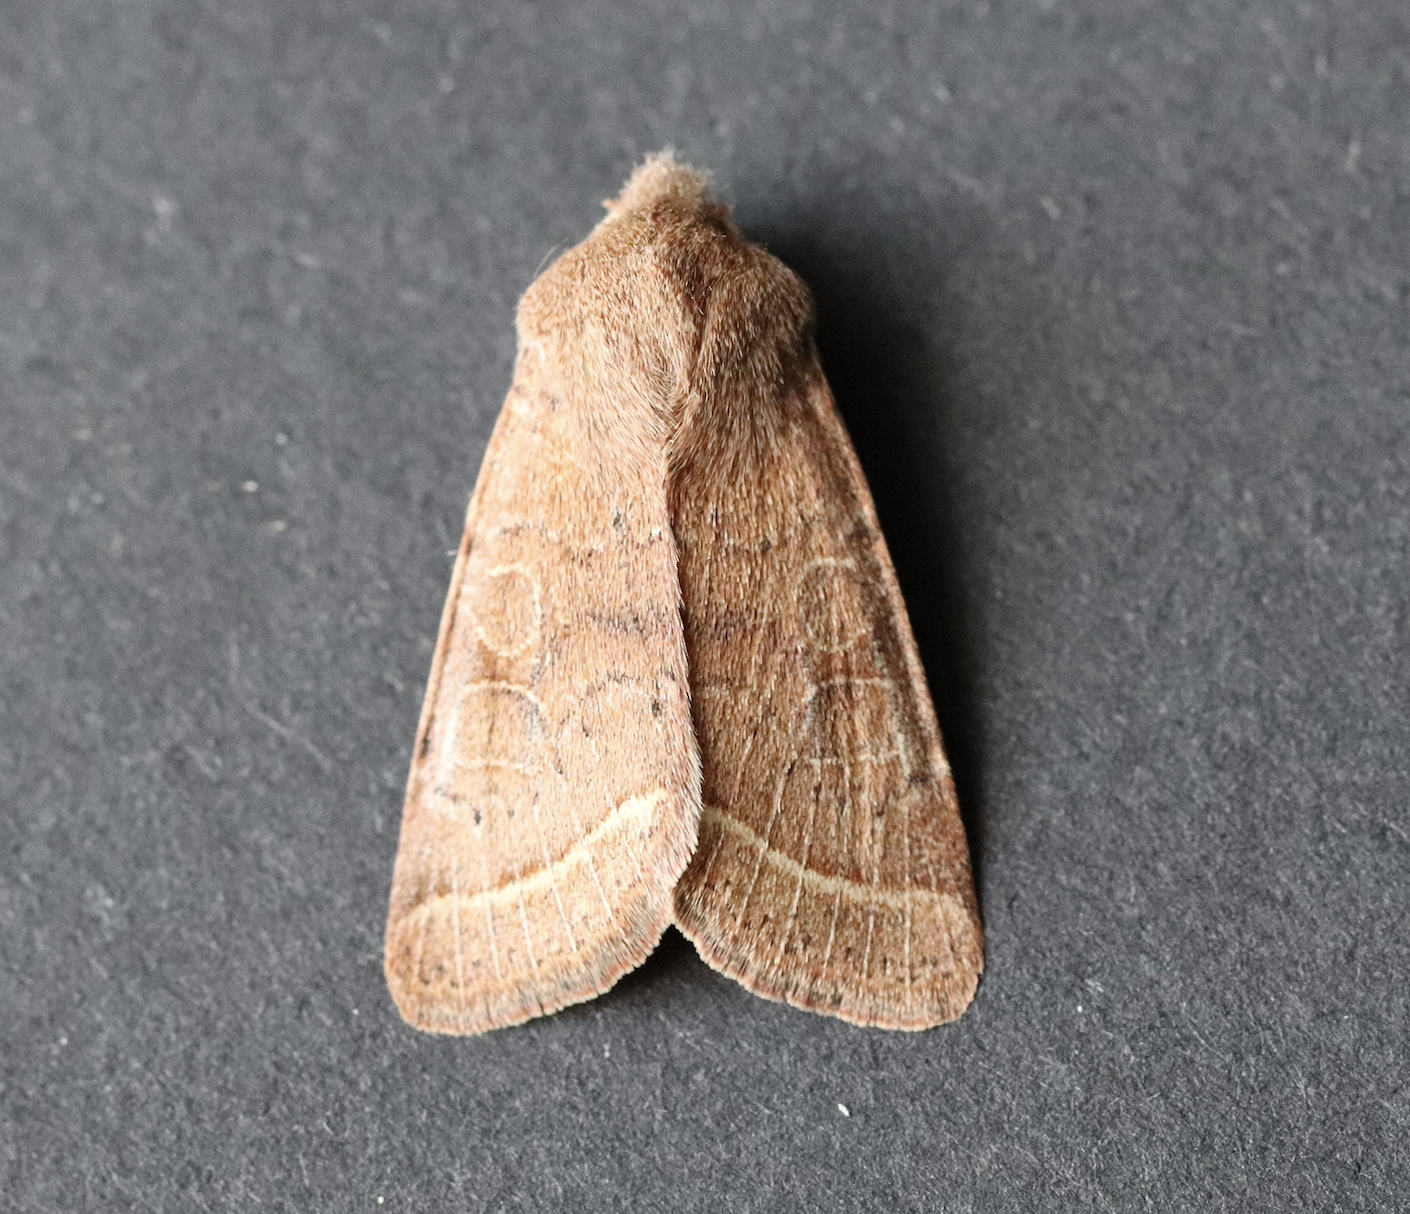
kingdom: Animalia
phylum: Arthropoda
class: Insecta
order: Lepidoptera
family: Noctuidae
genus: Orthosia
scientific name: Orthosia cerasi
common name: Common quaker
